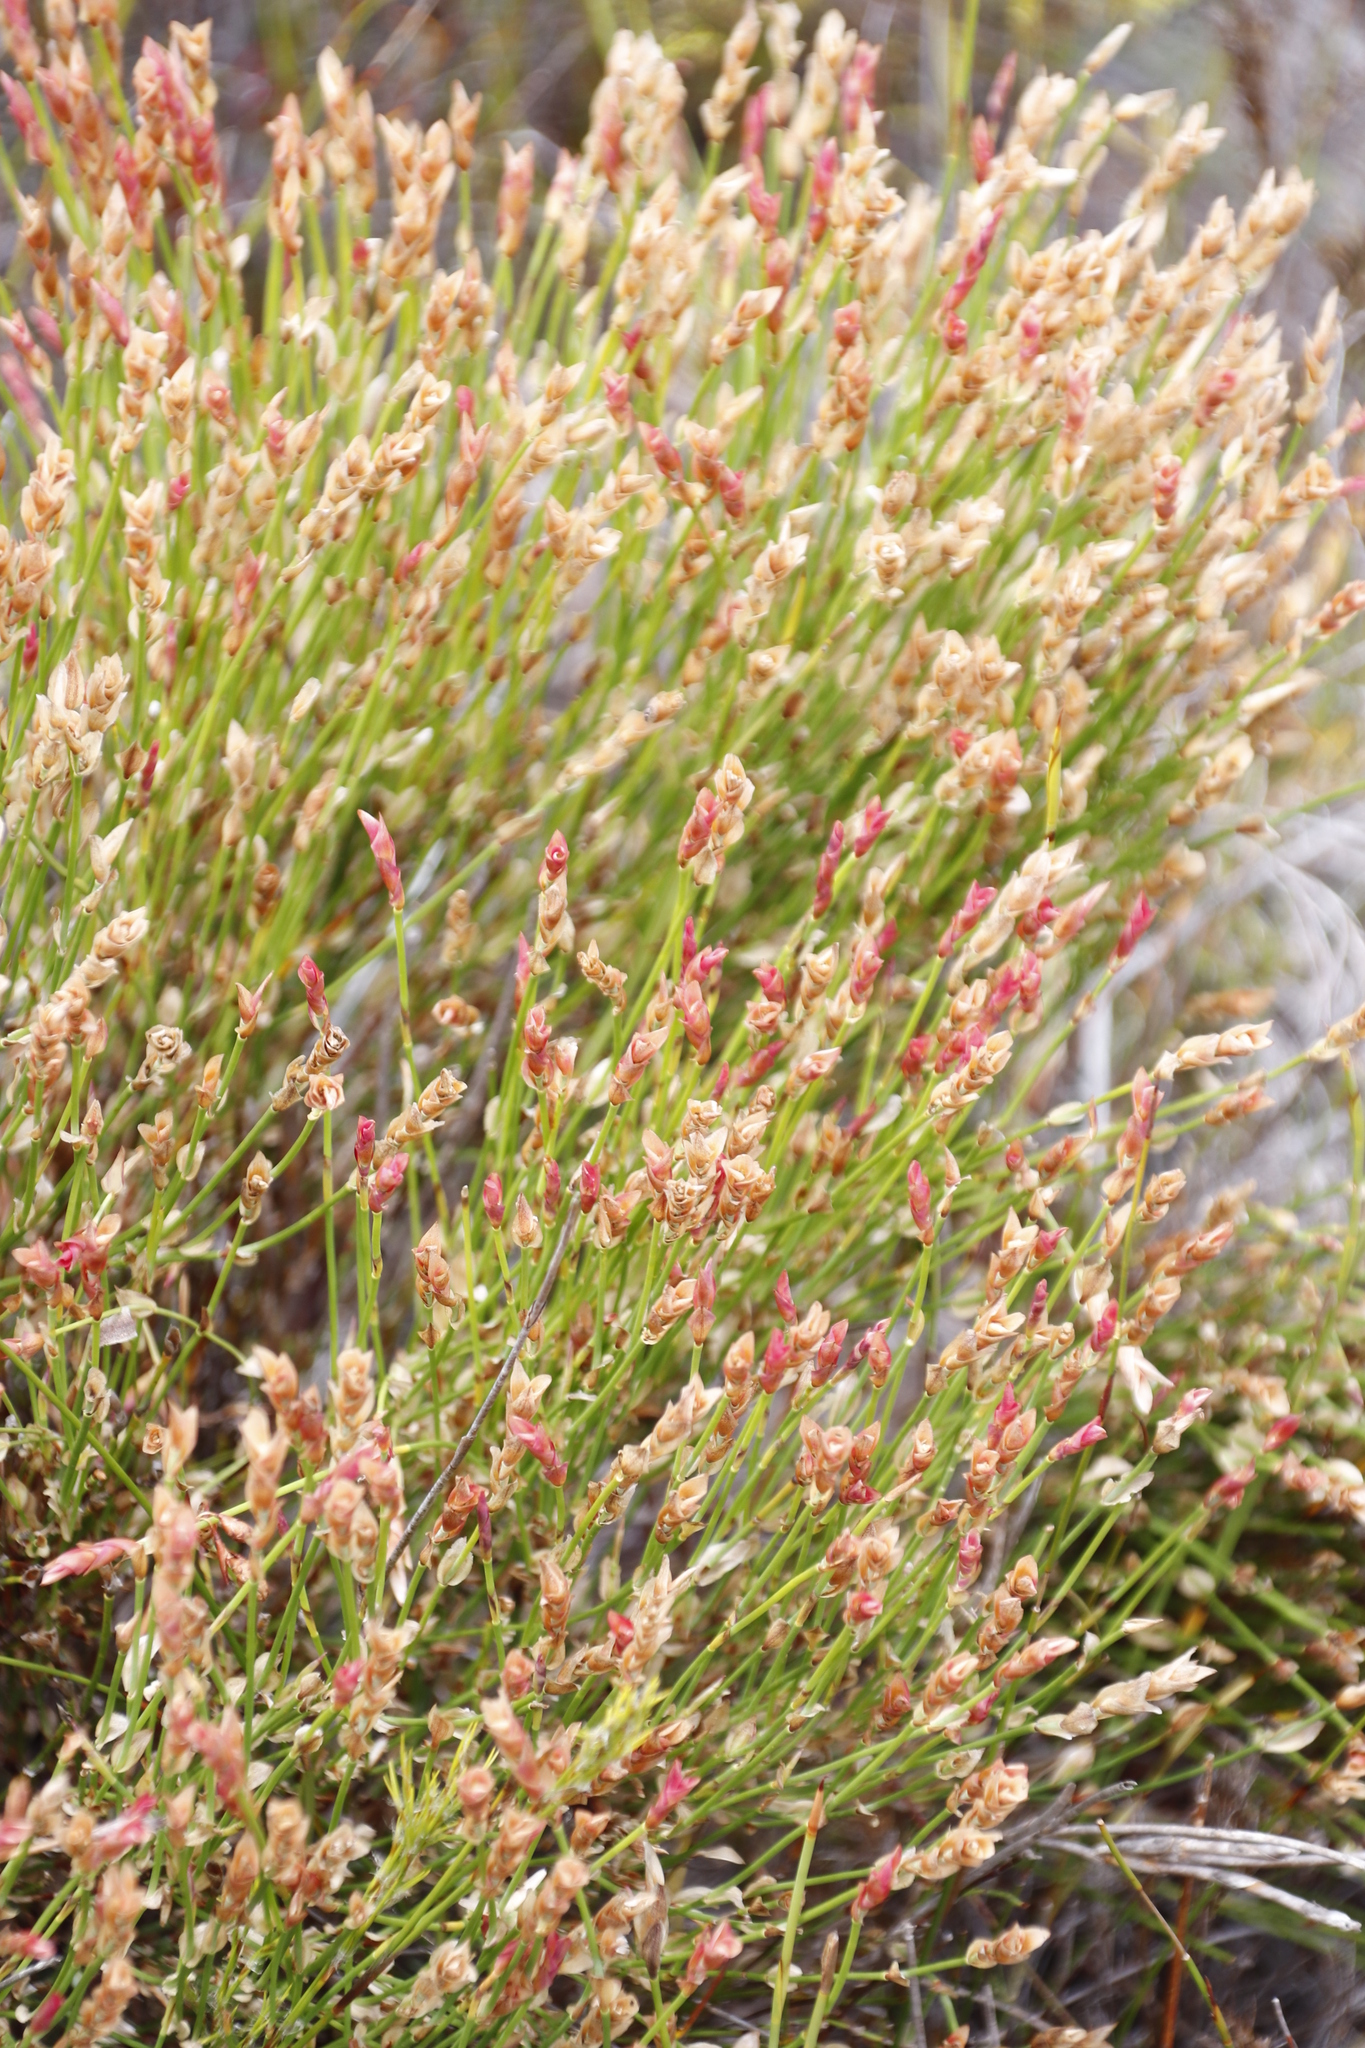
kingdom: Plantae
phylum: Tracheophyta
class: Liliopsida
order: Poales
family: Restionaceae
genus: Elegia
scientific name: Elegia stipularis
